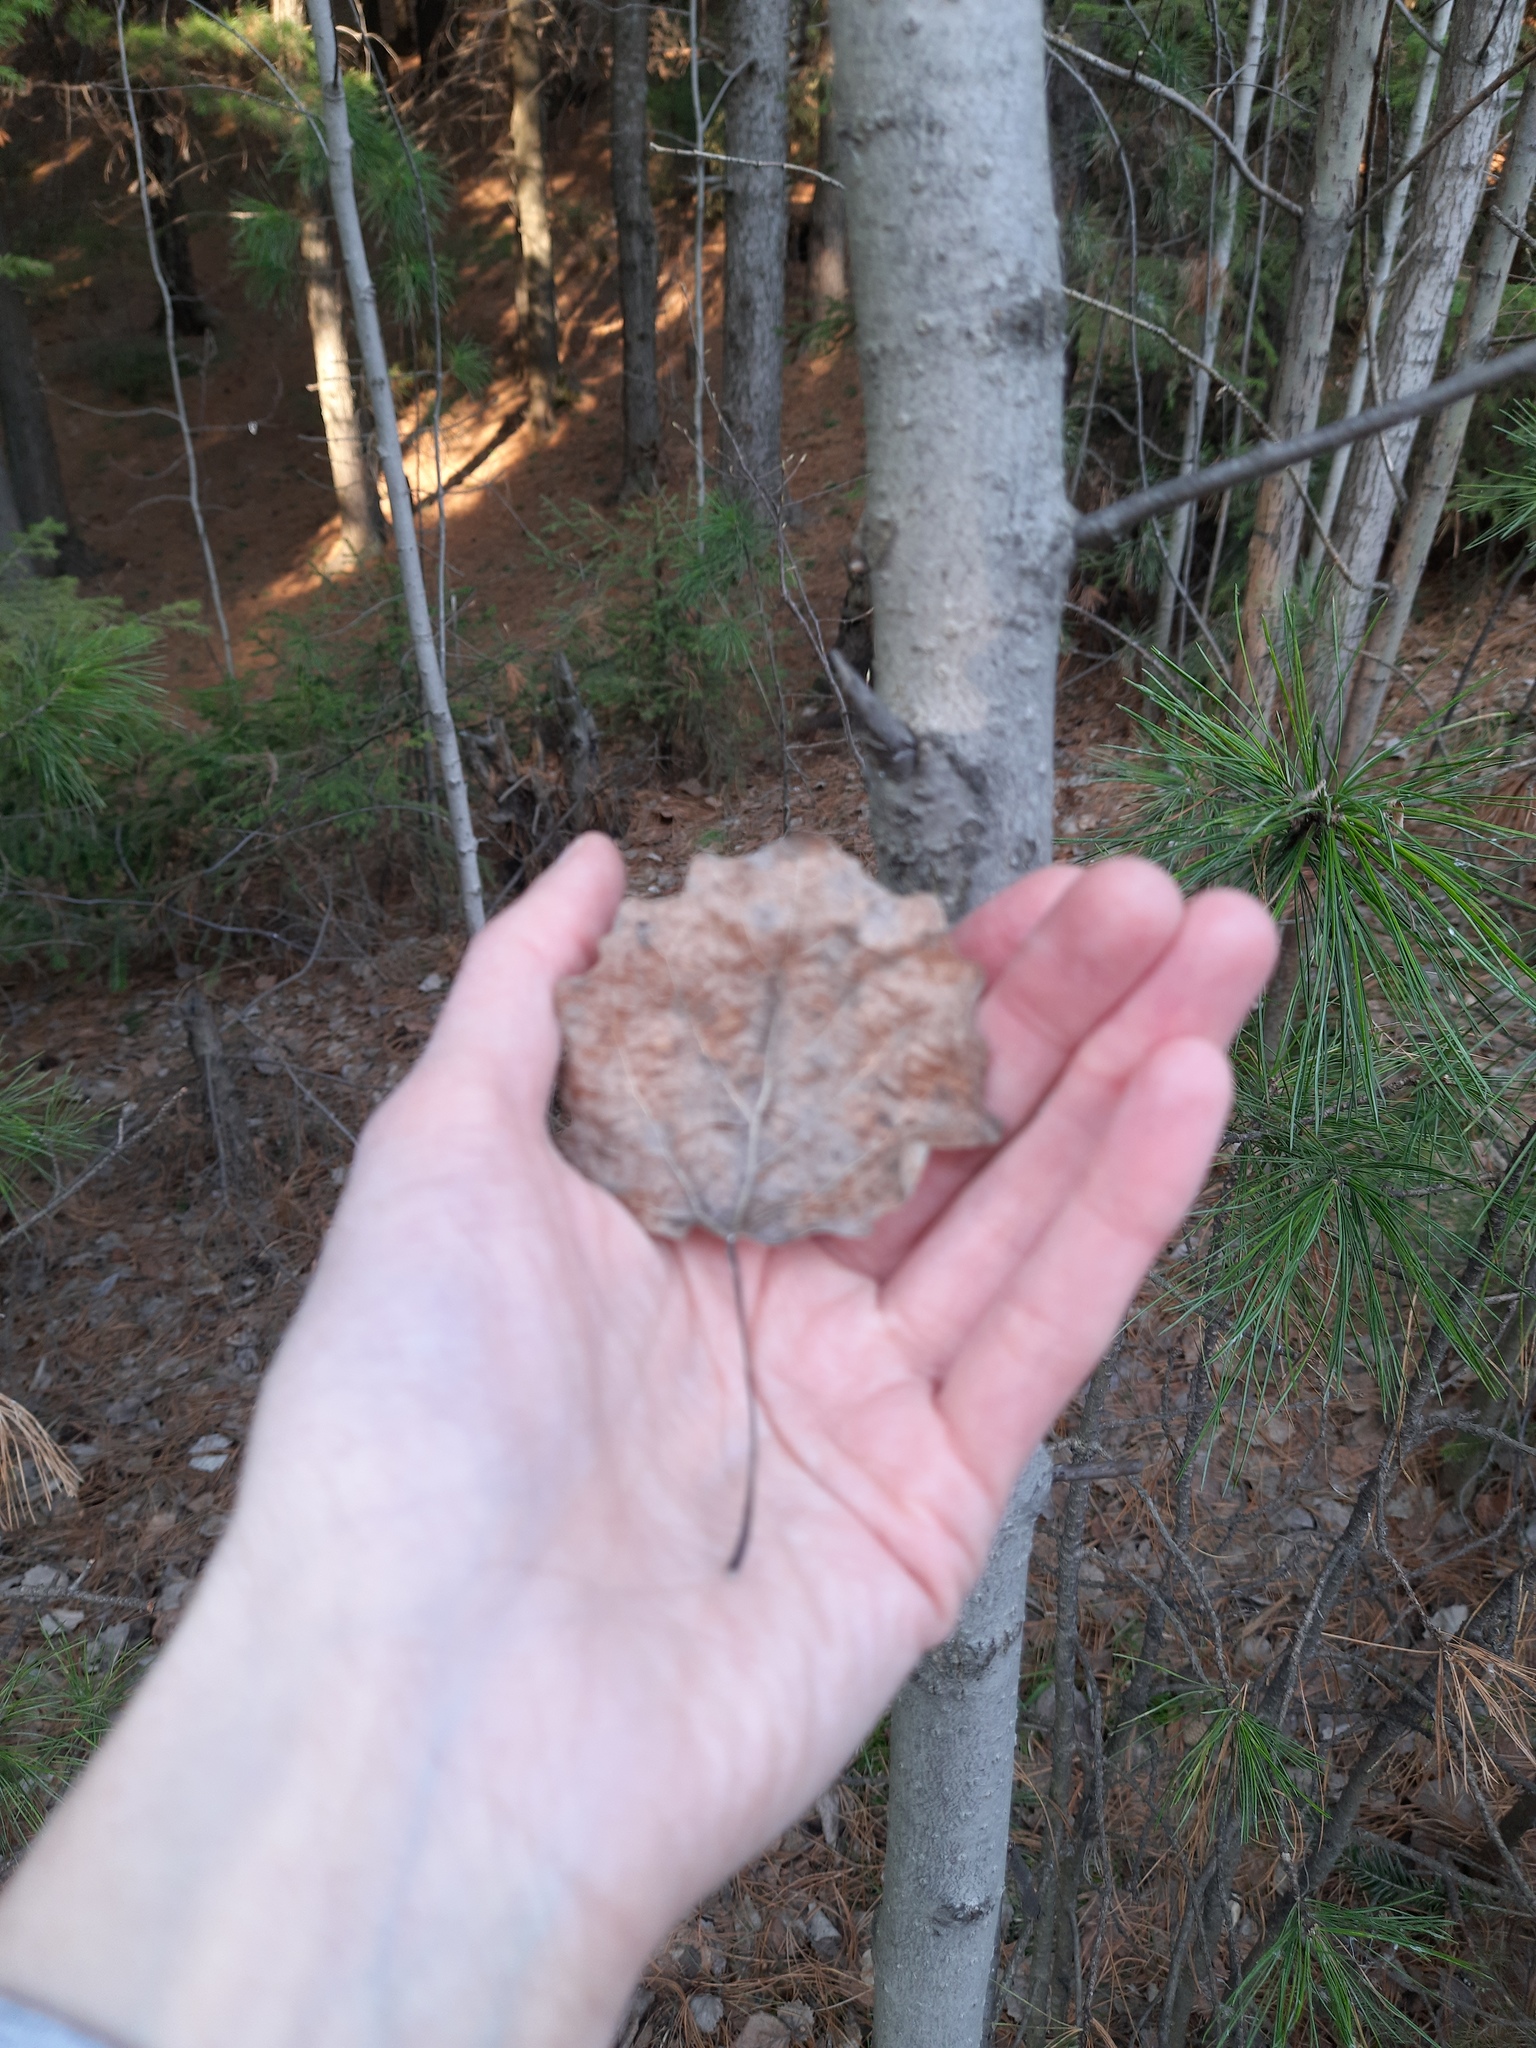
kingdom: Plantae
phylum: Tracheophyta
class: Magnoliopsida
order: Malpighiales
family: Salicaceae
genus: Populus
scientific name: Populus tremula
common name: European aspen
